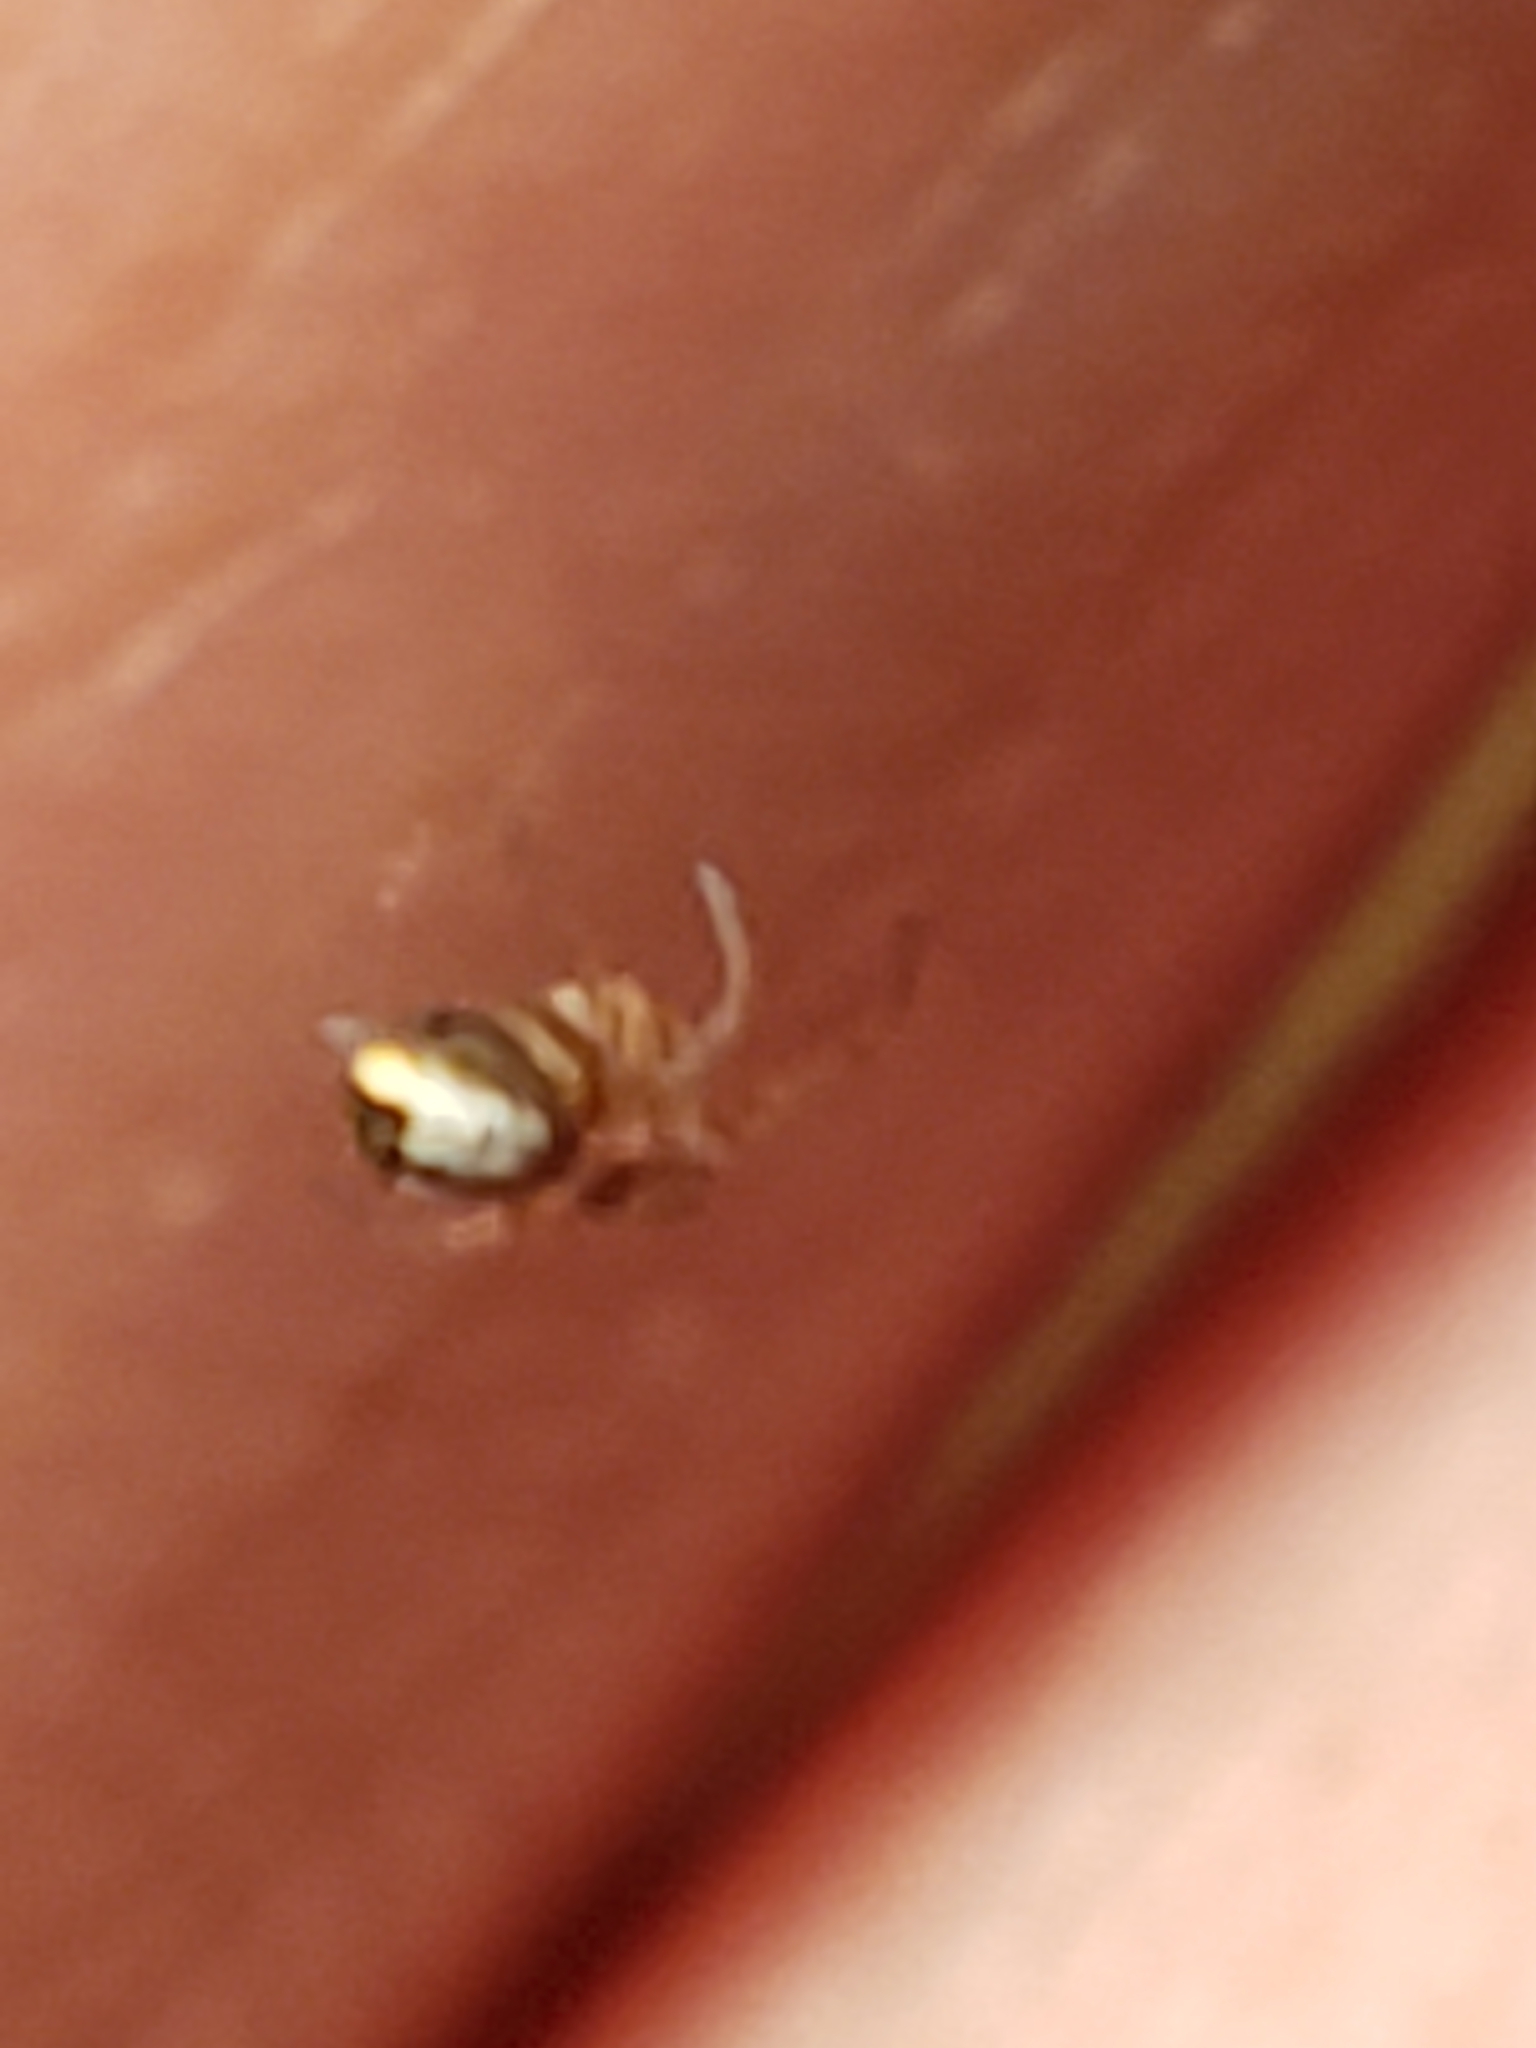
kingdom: Animalia
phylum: Arthropoda
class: Arachnida
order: Araneae
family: Tetragnathidae
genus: Leucauge
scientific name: Leucauge venusta
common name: Longjawed orb weavers
